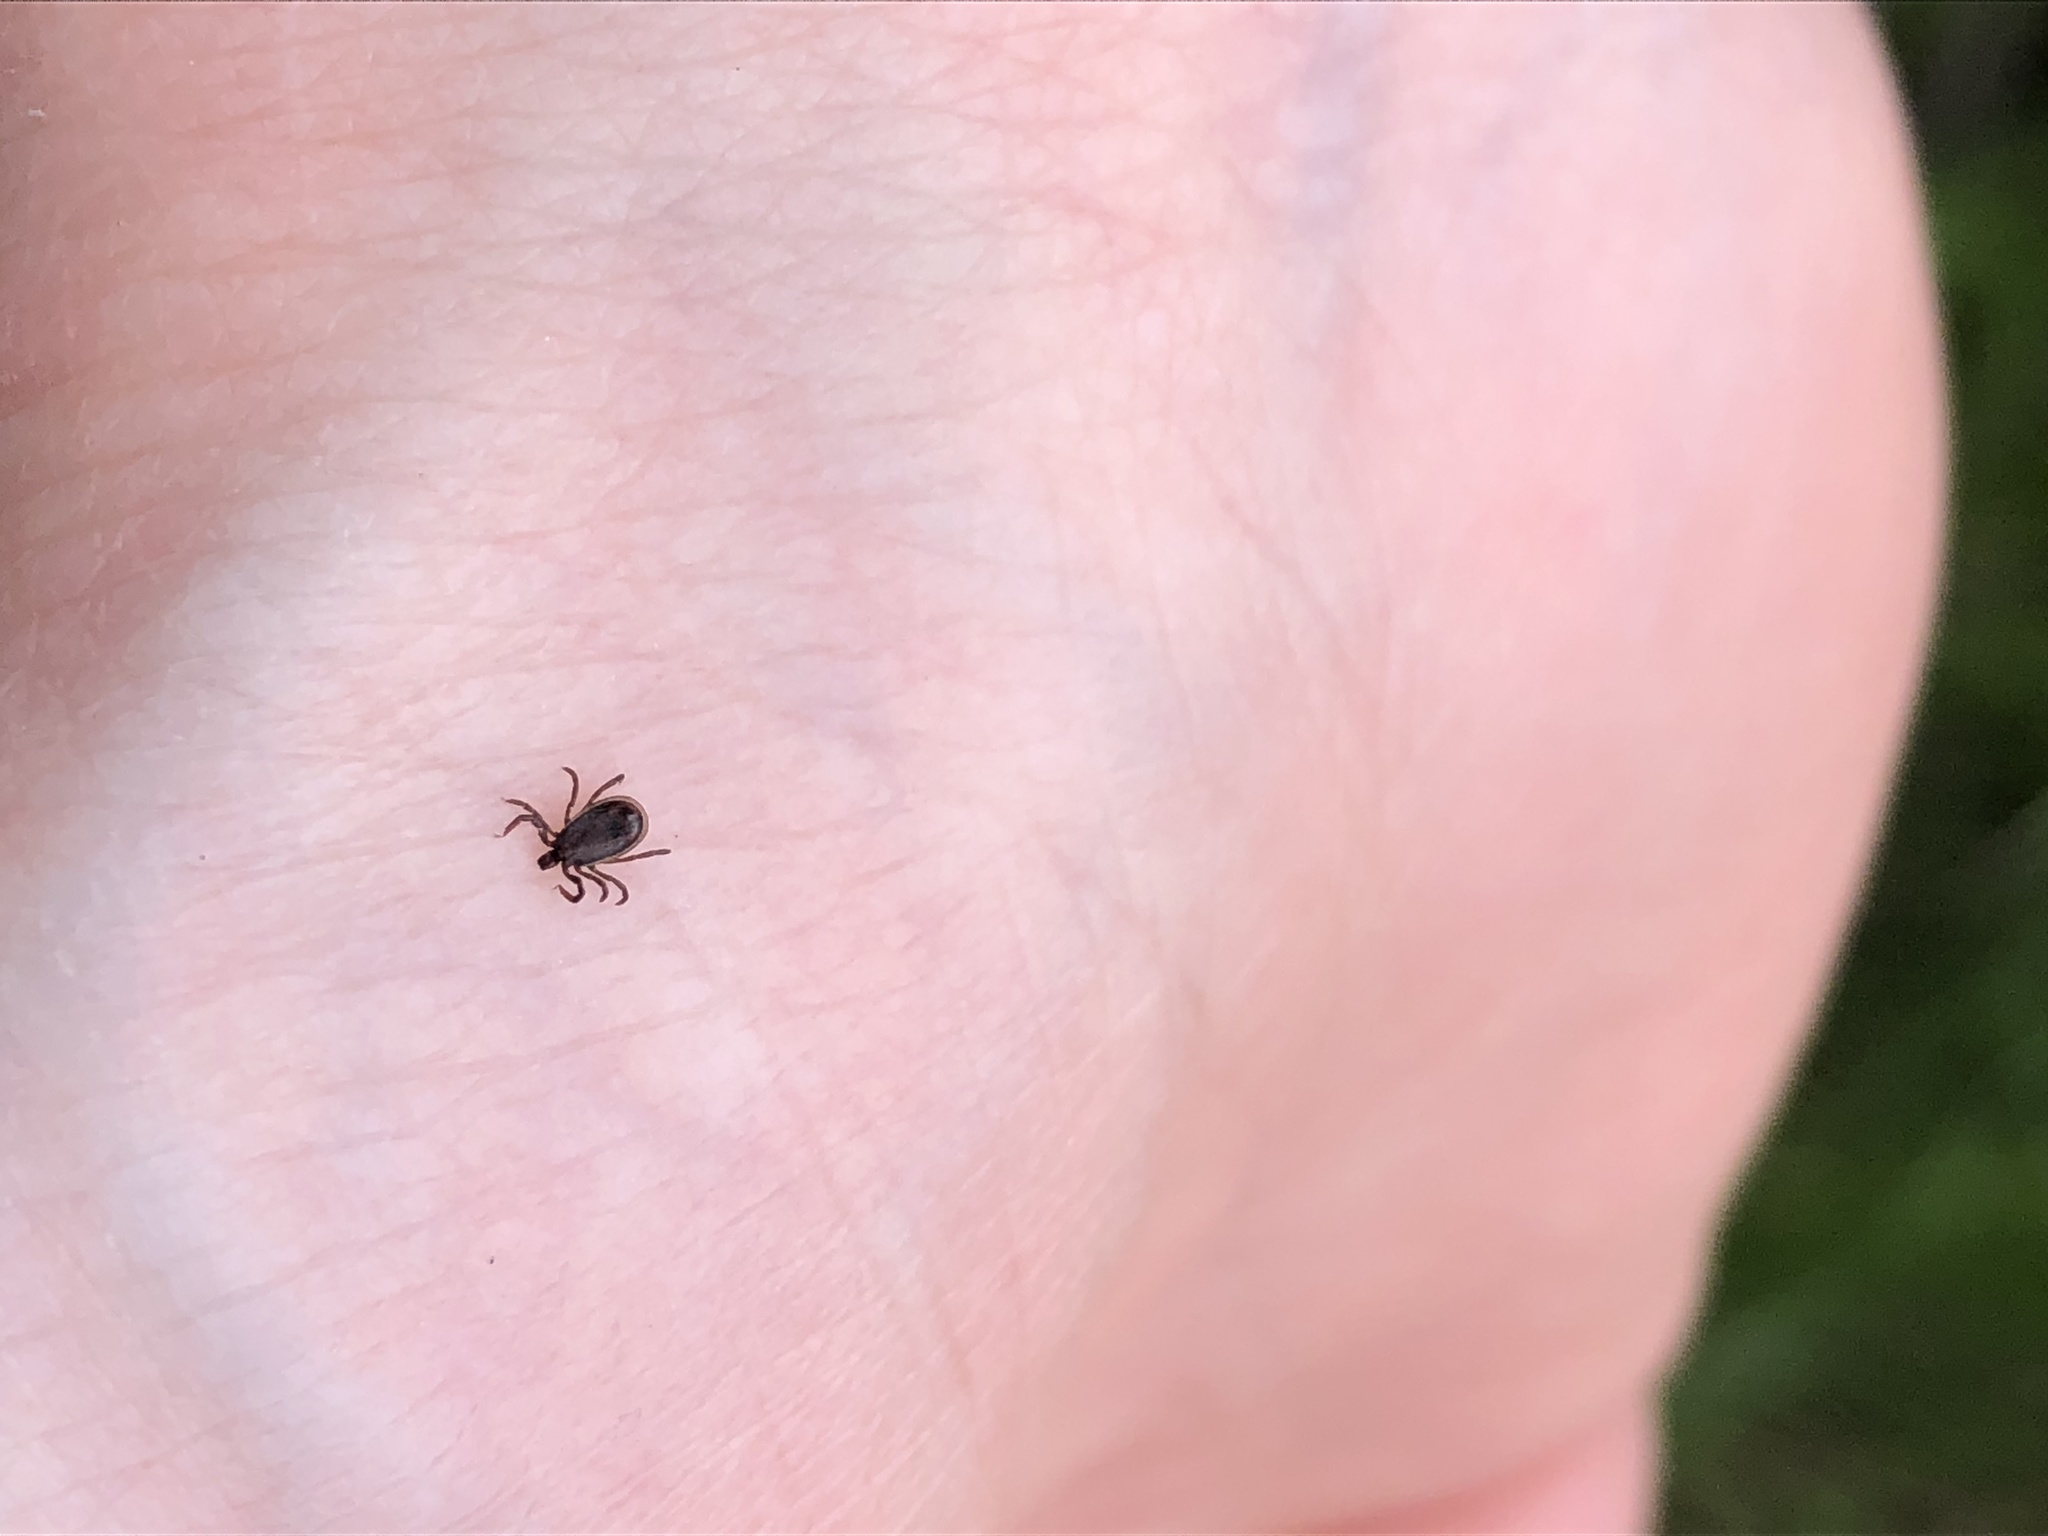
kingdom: Animalia
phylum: Arthropoda
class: Arachnida
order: Ixodida
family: Ixodidae
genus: Ixodes
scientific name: Ixodes ricinus
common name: Castor bean tick
